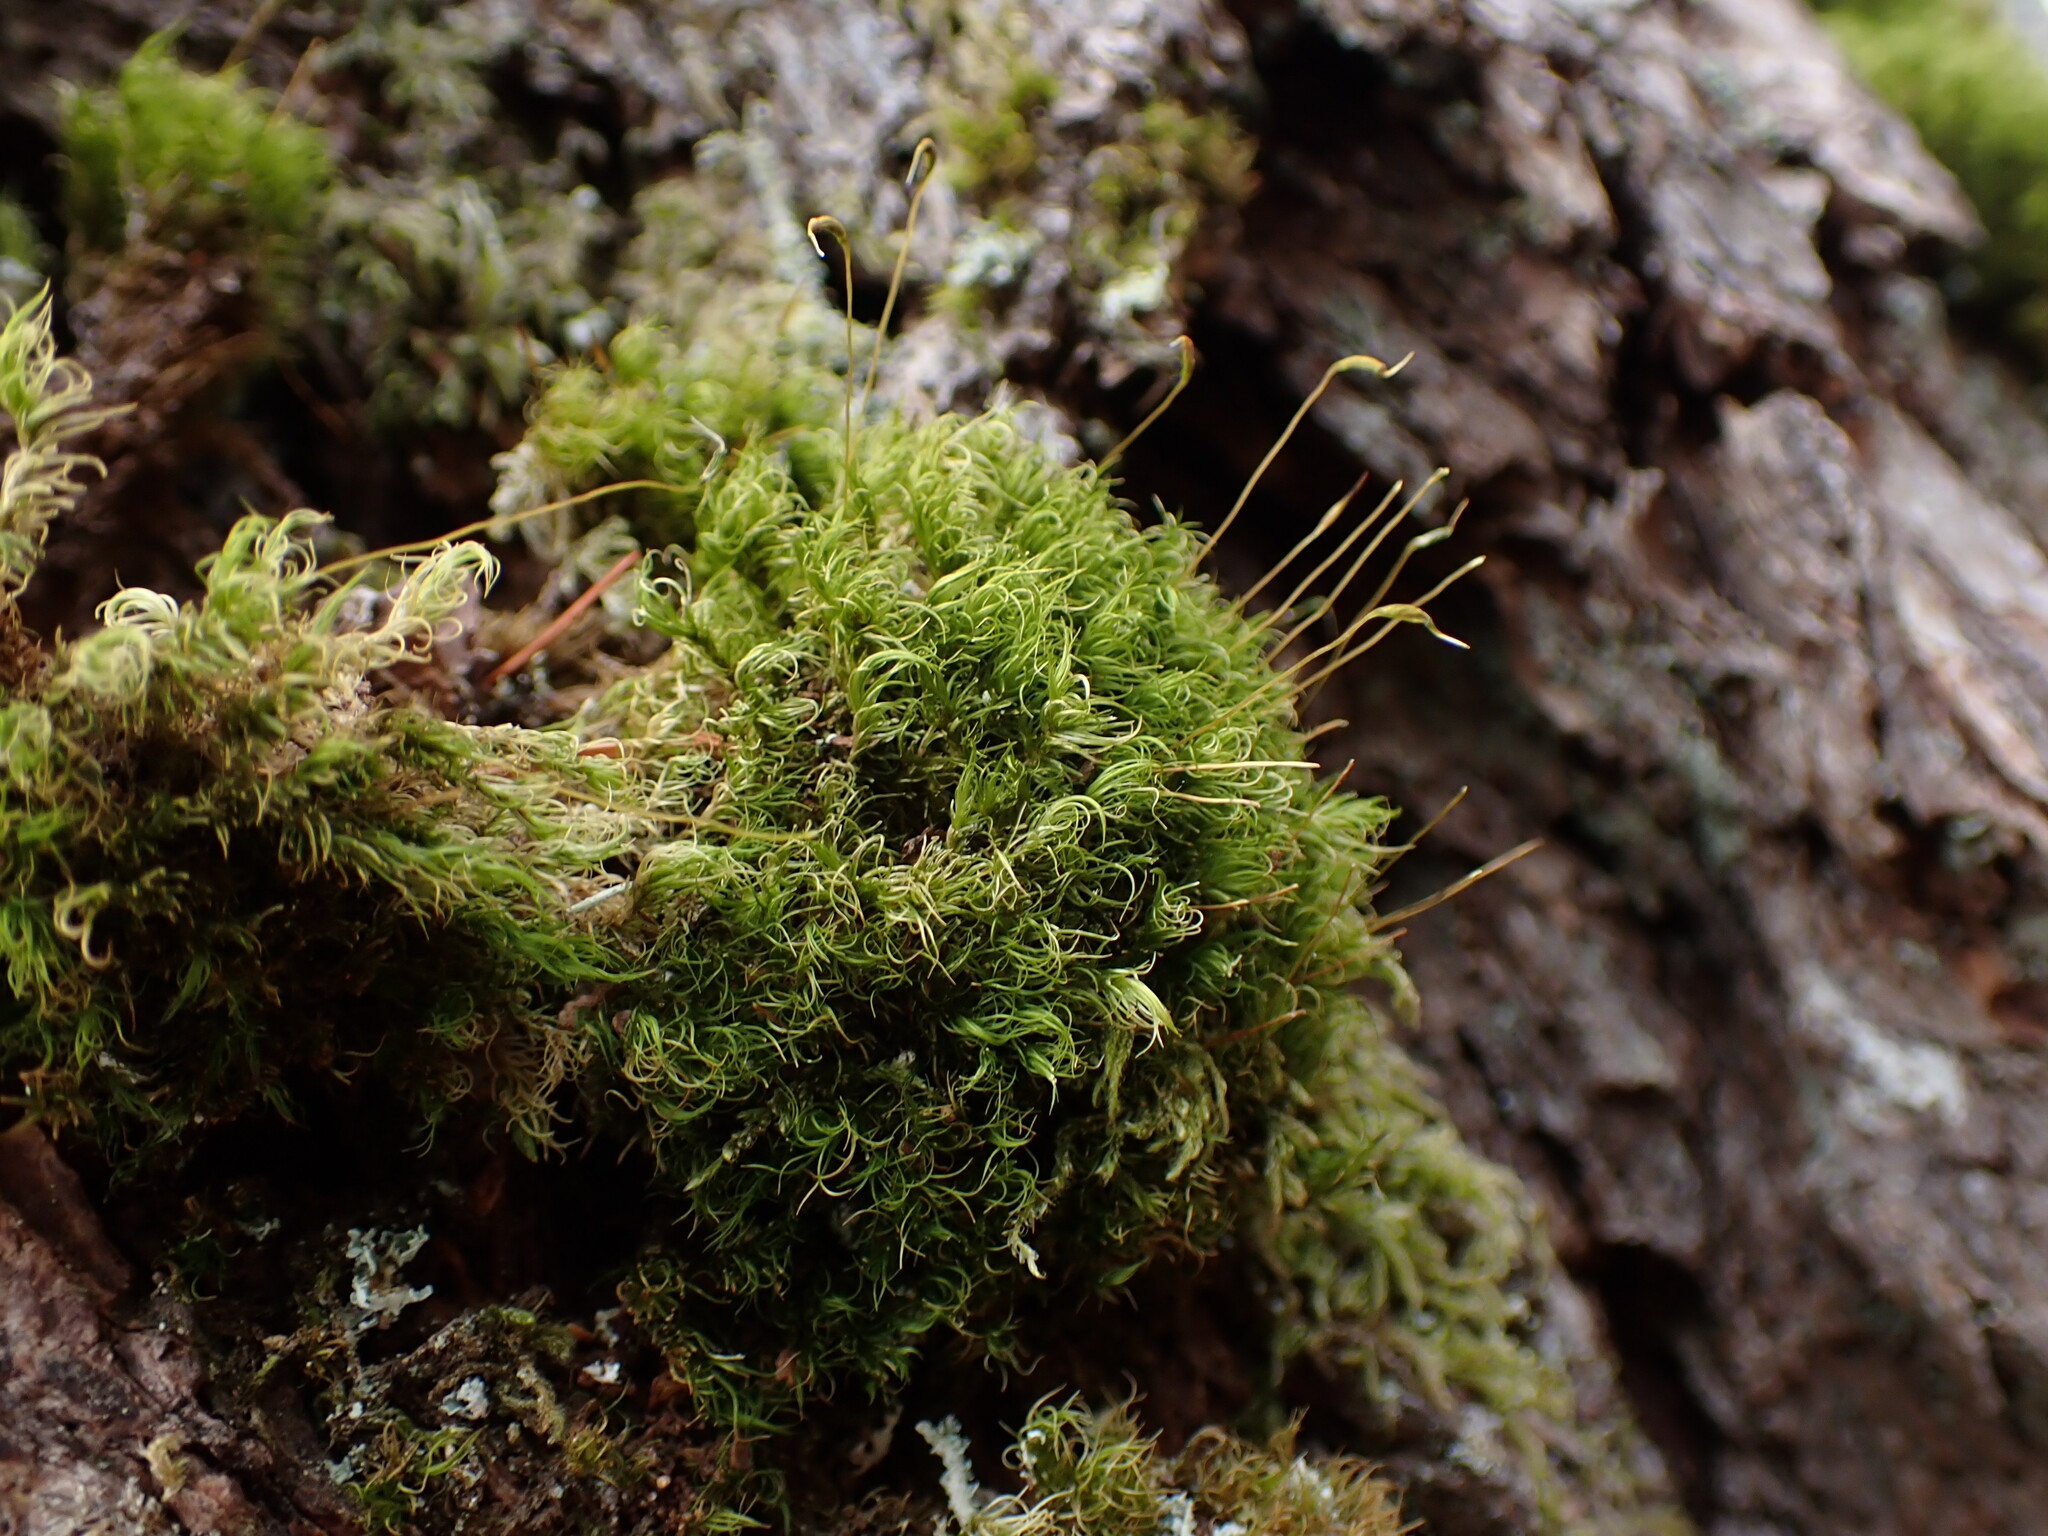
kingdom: Plantae
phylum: Bryophyta
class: Bryopsida
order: Dicranales
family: Dicranaceae
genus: Dicranum
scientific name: Dicranum fuscescens
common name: Curly heron's-bill moss
